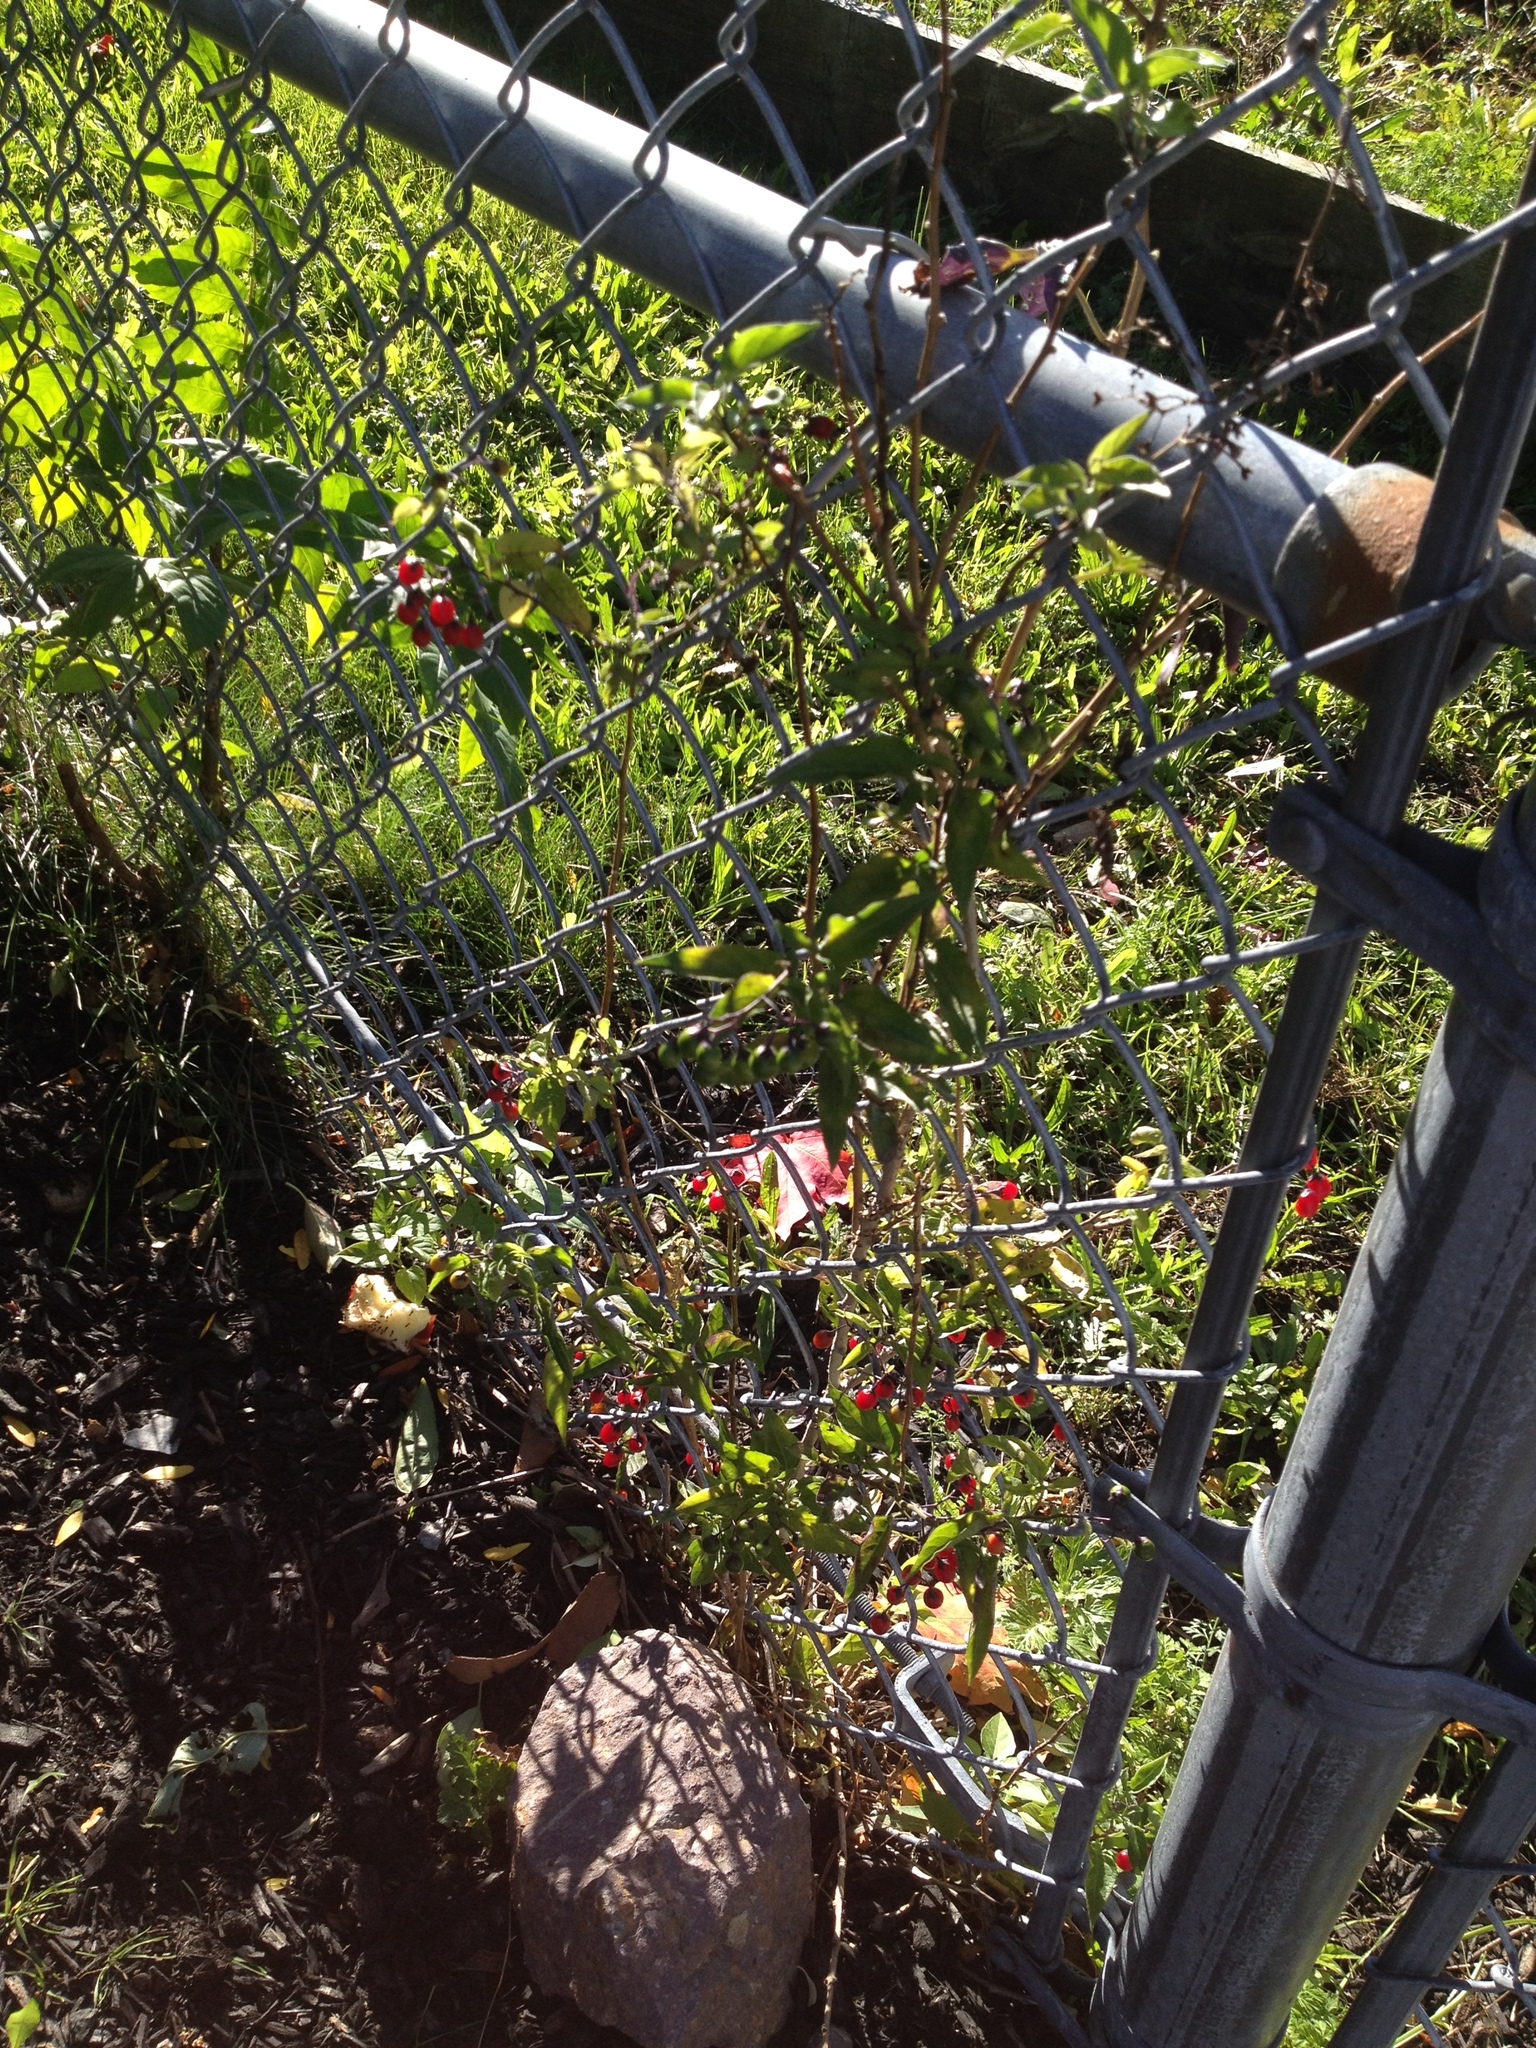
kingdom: Plantae
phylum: Tracheophyta
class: Magnoliopsida
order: Solanales
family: Solanaceae
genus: Solanum
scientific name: Solanum dulcamara
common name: Climbing nightshade
